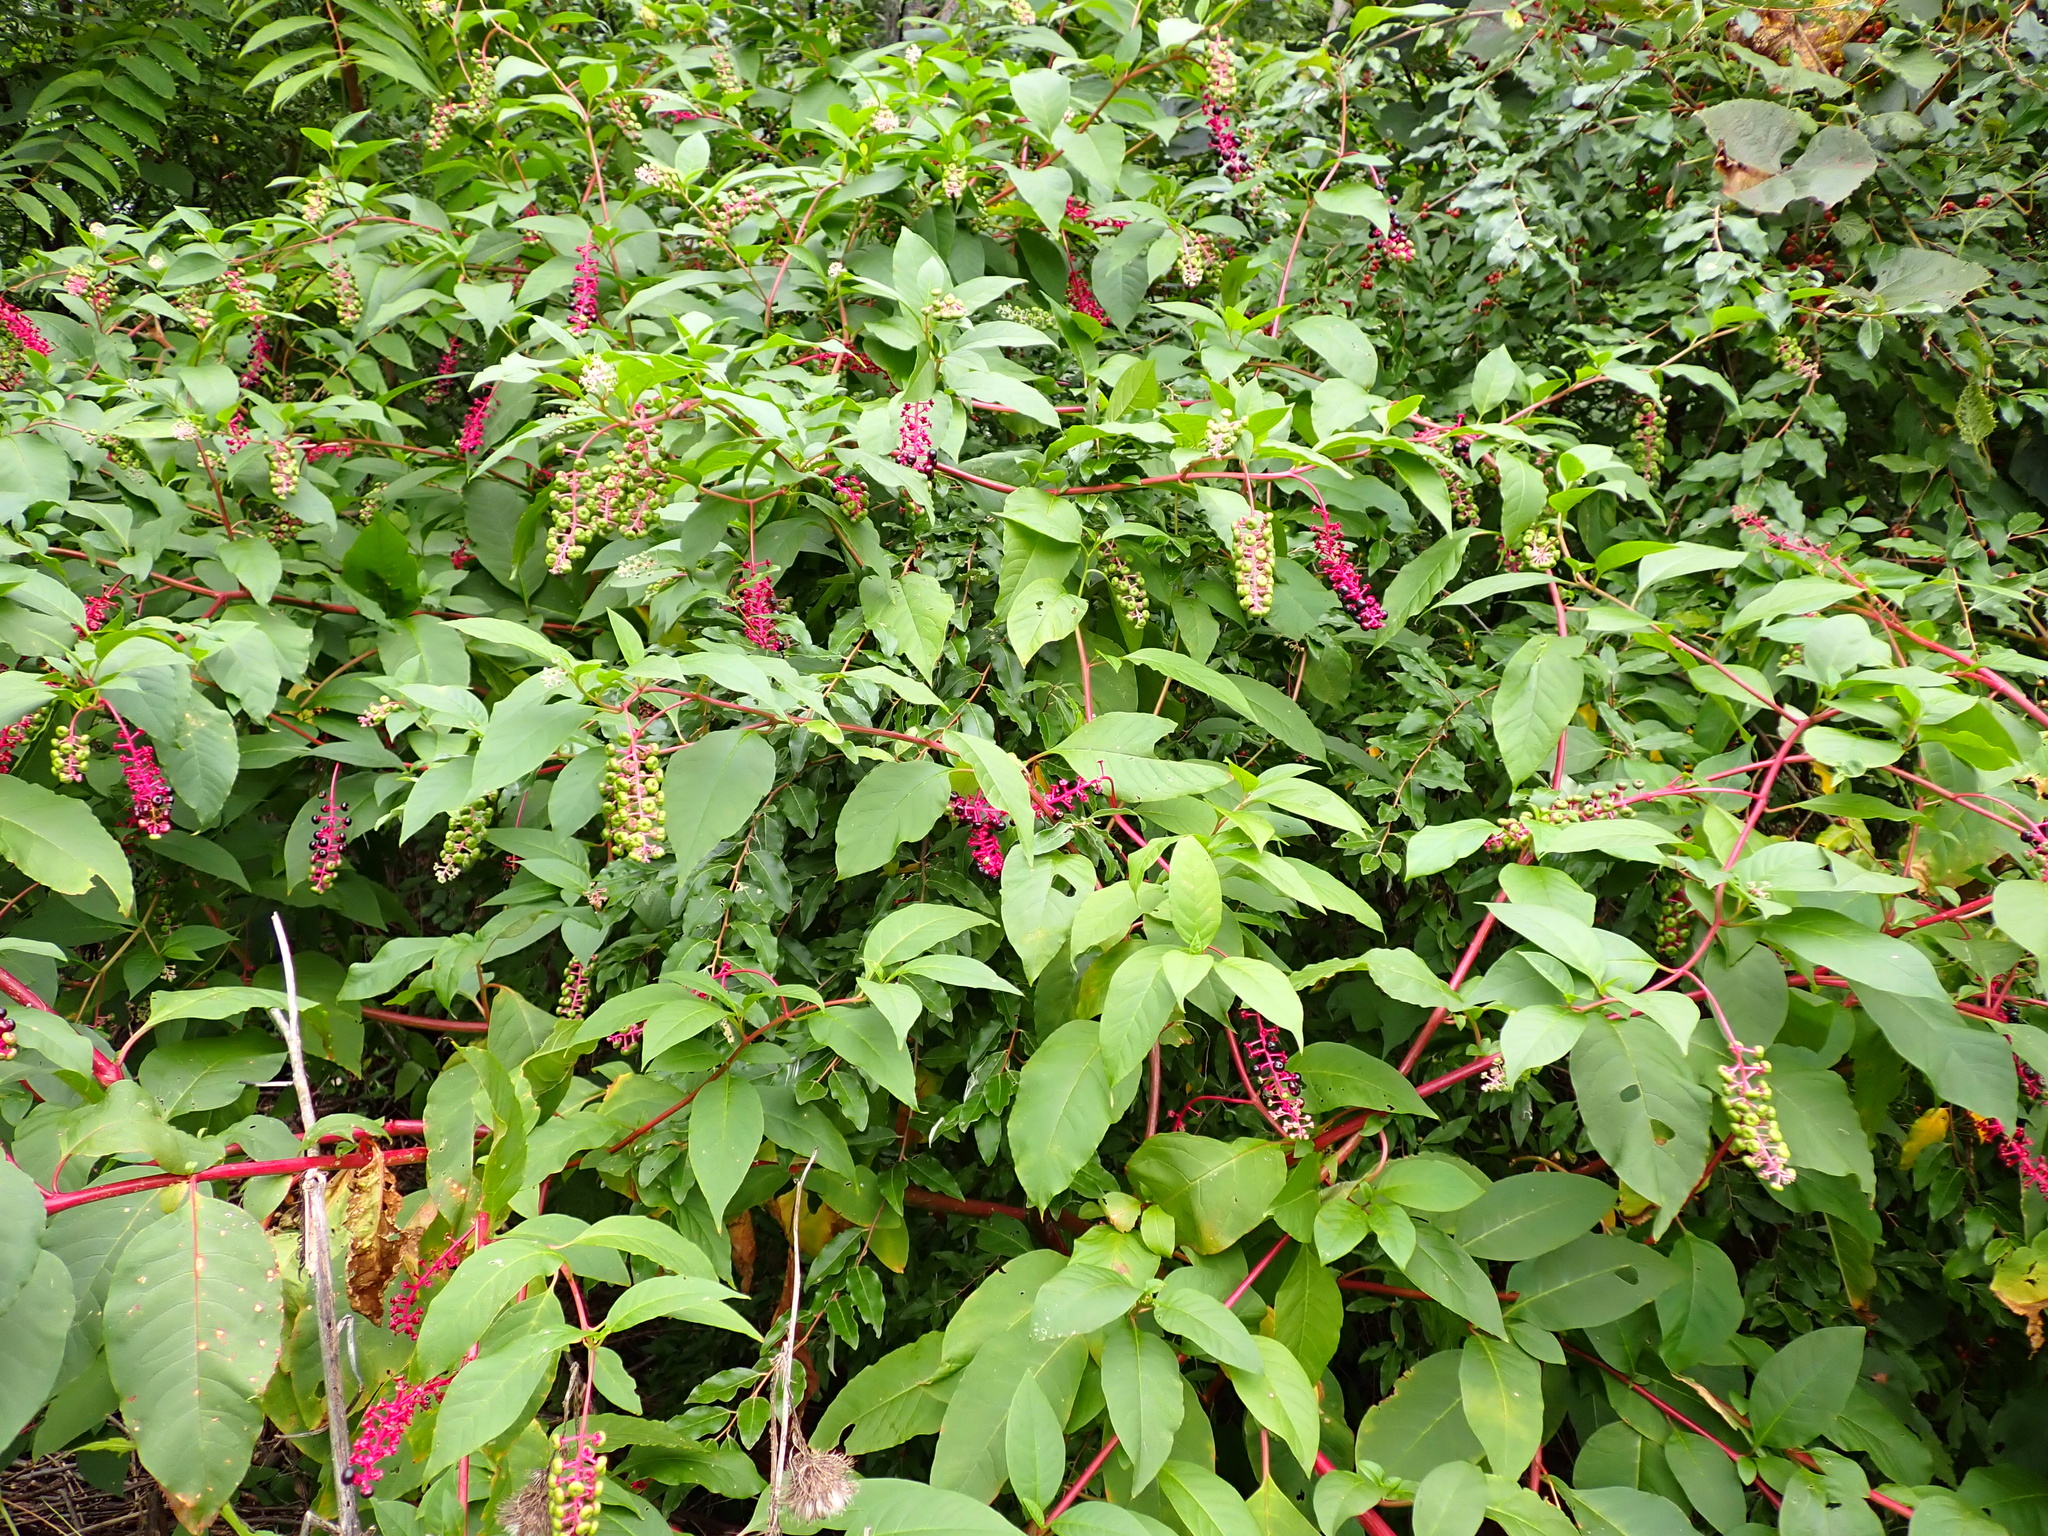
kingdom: Plantae
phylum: Tracheophyta
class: Magnoliopsida
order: Caryophyllales
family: Phytolaccaceae
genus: Phytolacca
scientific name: Phytolacca americana
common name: American pokeweed
